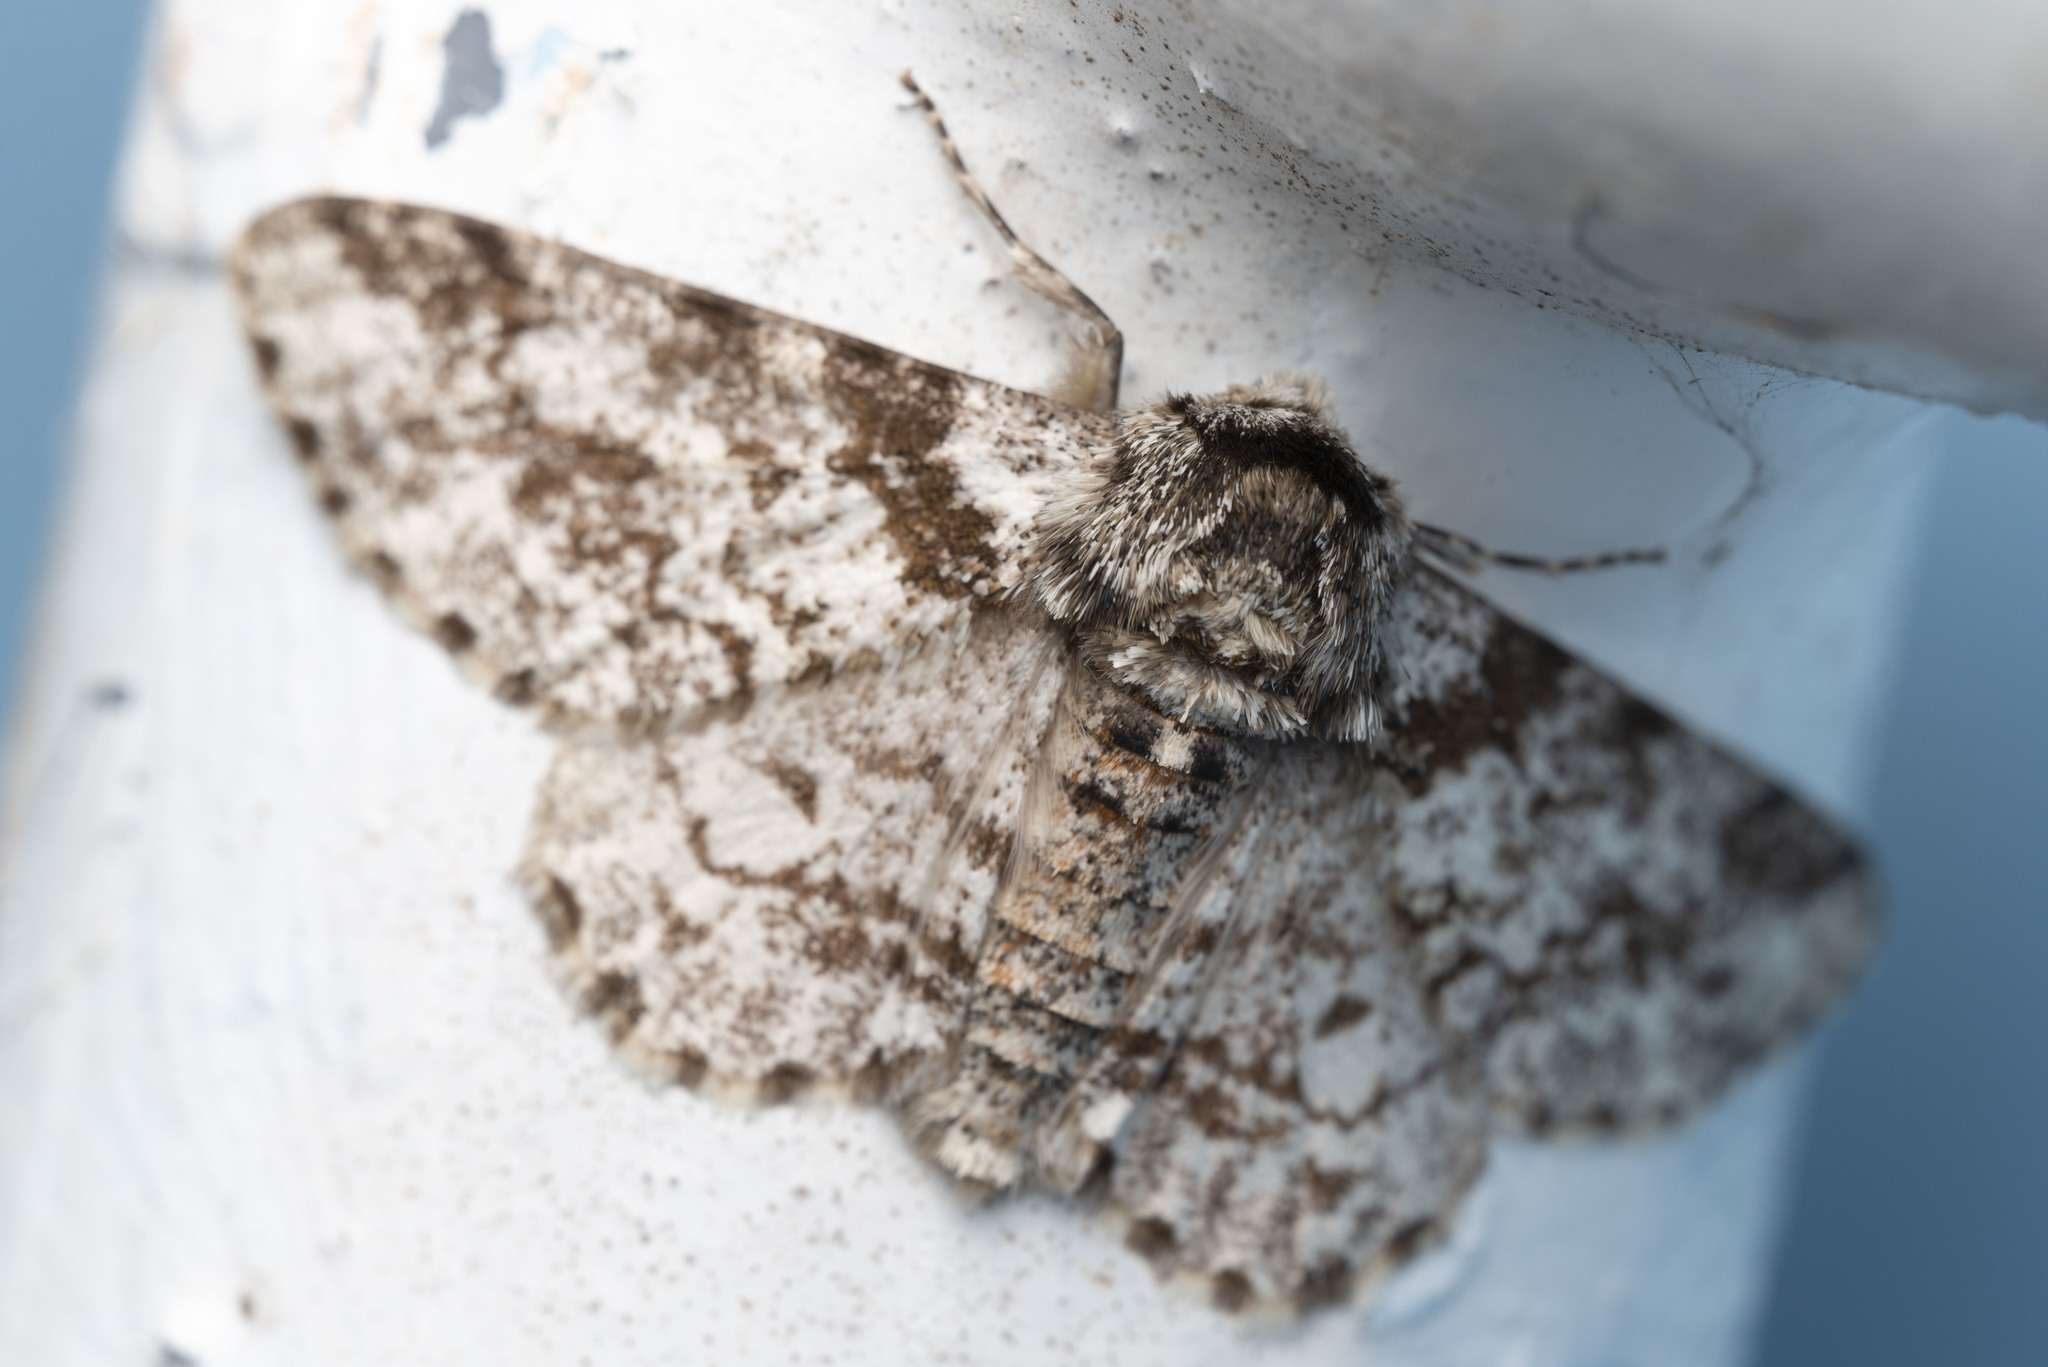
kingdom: Animalia
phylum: Arthropoda
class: Insecta
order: Lepidoptera
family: Geometridae
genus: Biston
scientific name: Biston marginata
